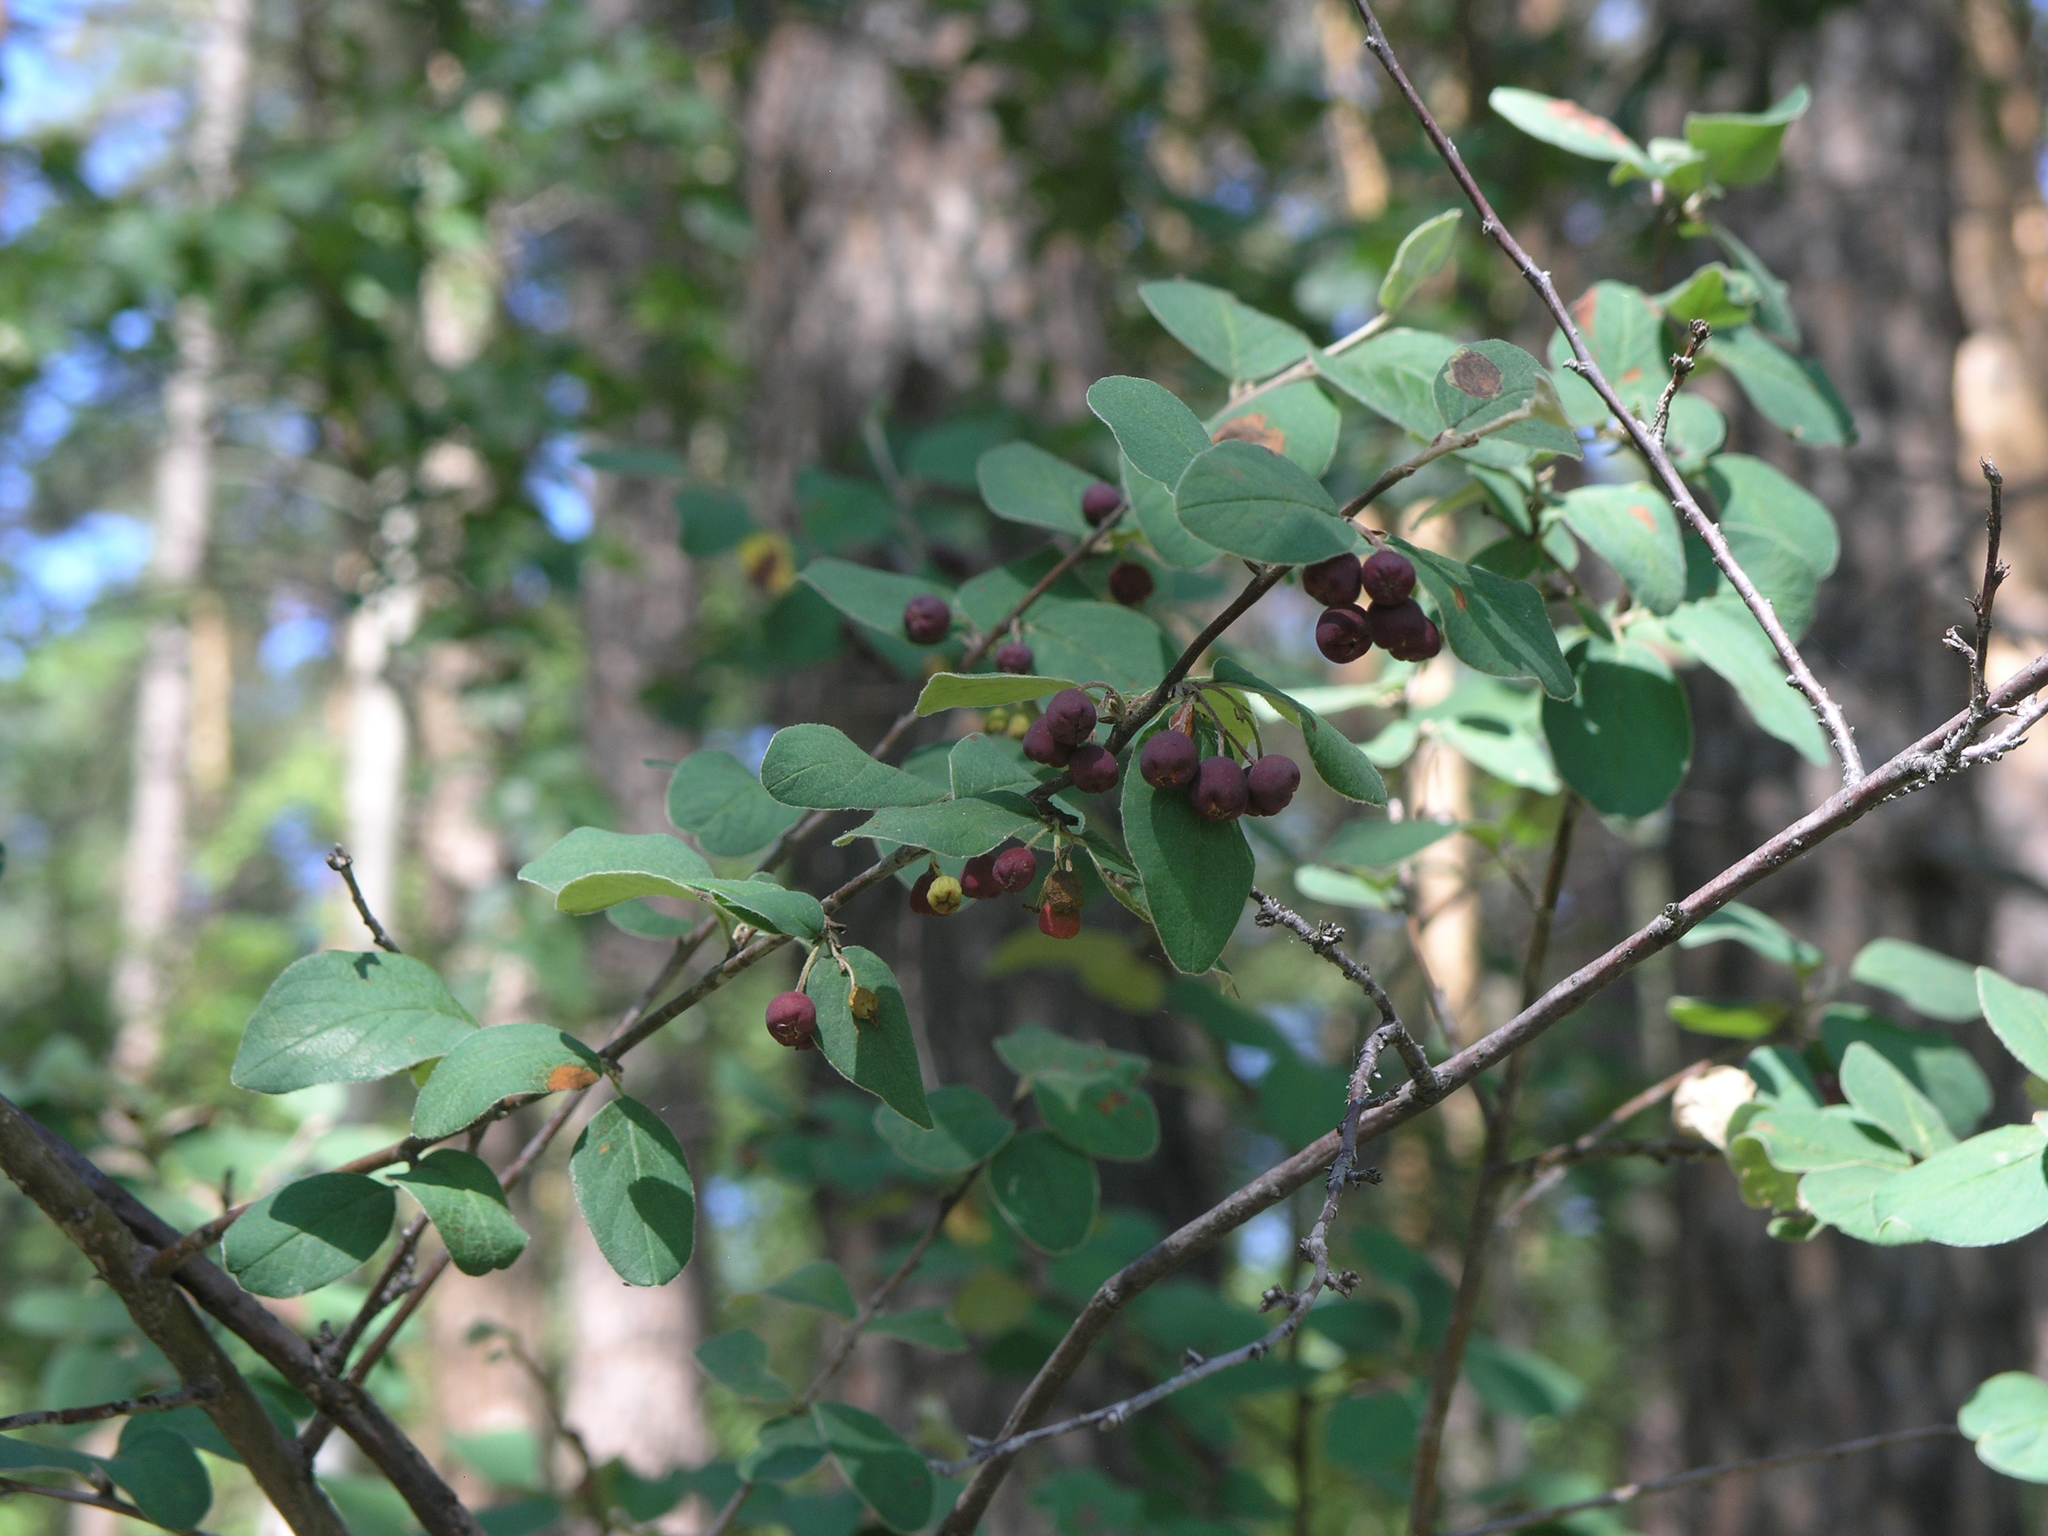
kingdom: Plantae
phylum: Tracheophyta
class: Magnoliopsida
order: Rosales
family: Rosaceae
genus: Cotoneaster
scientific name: Cotoneaster melanocarpus
